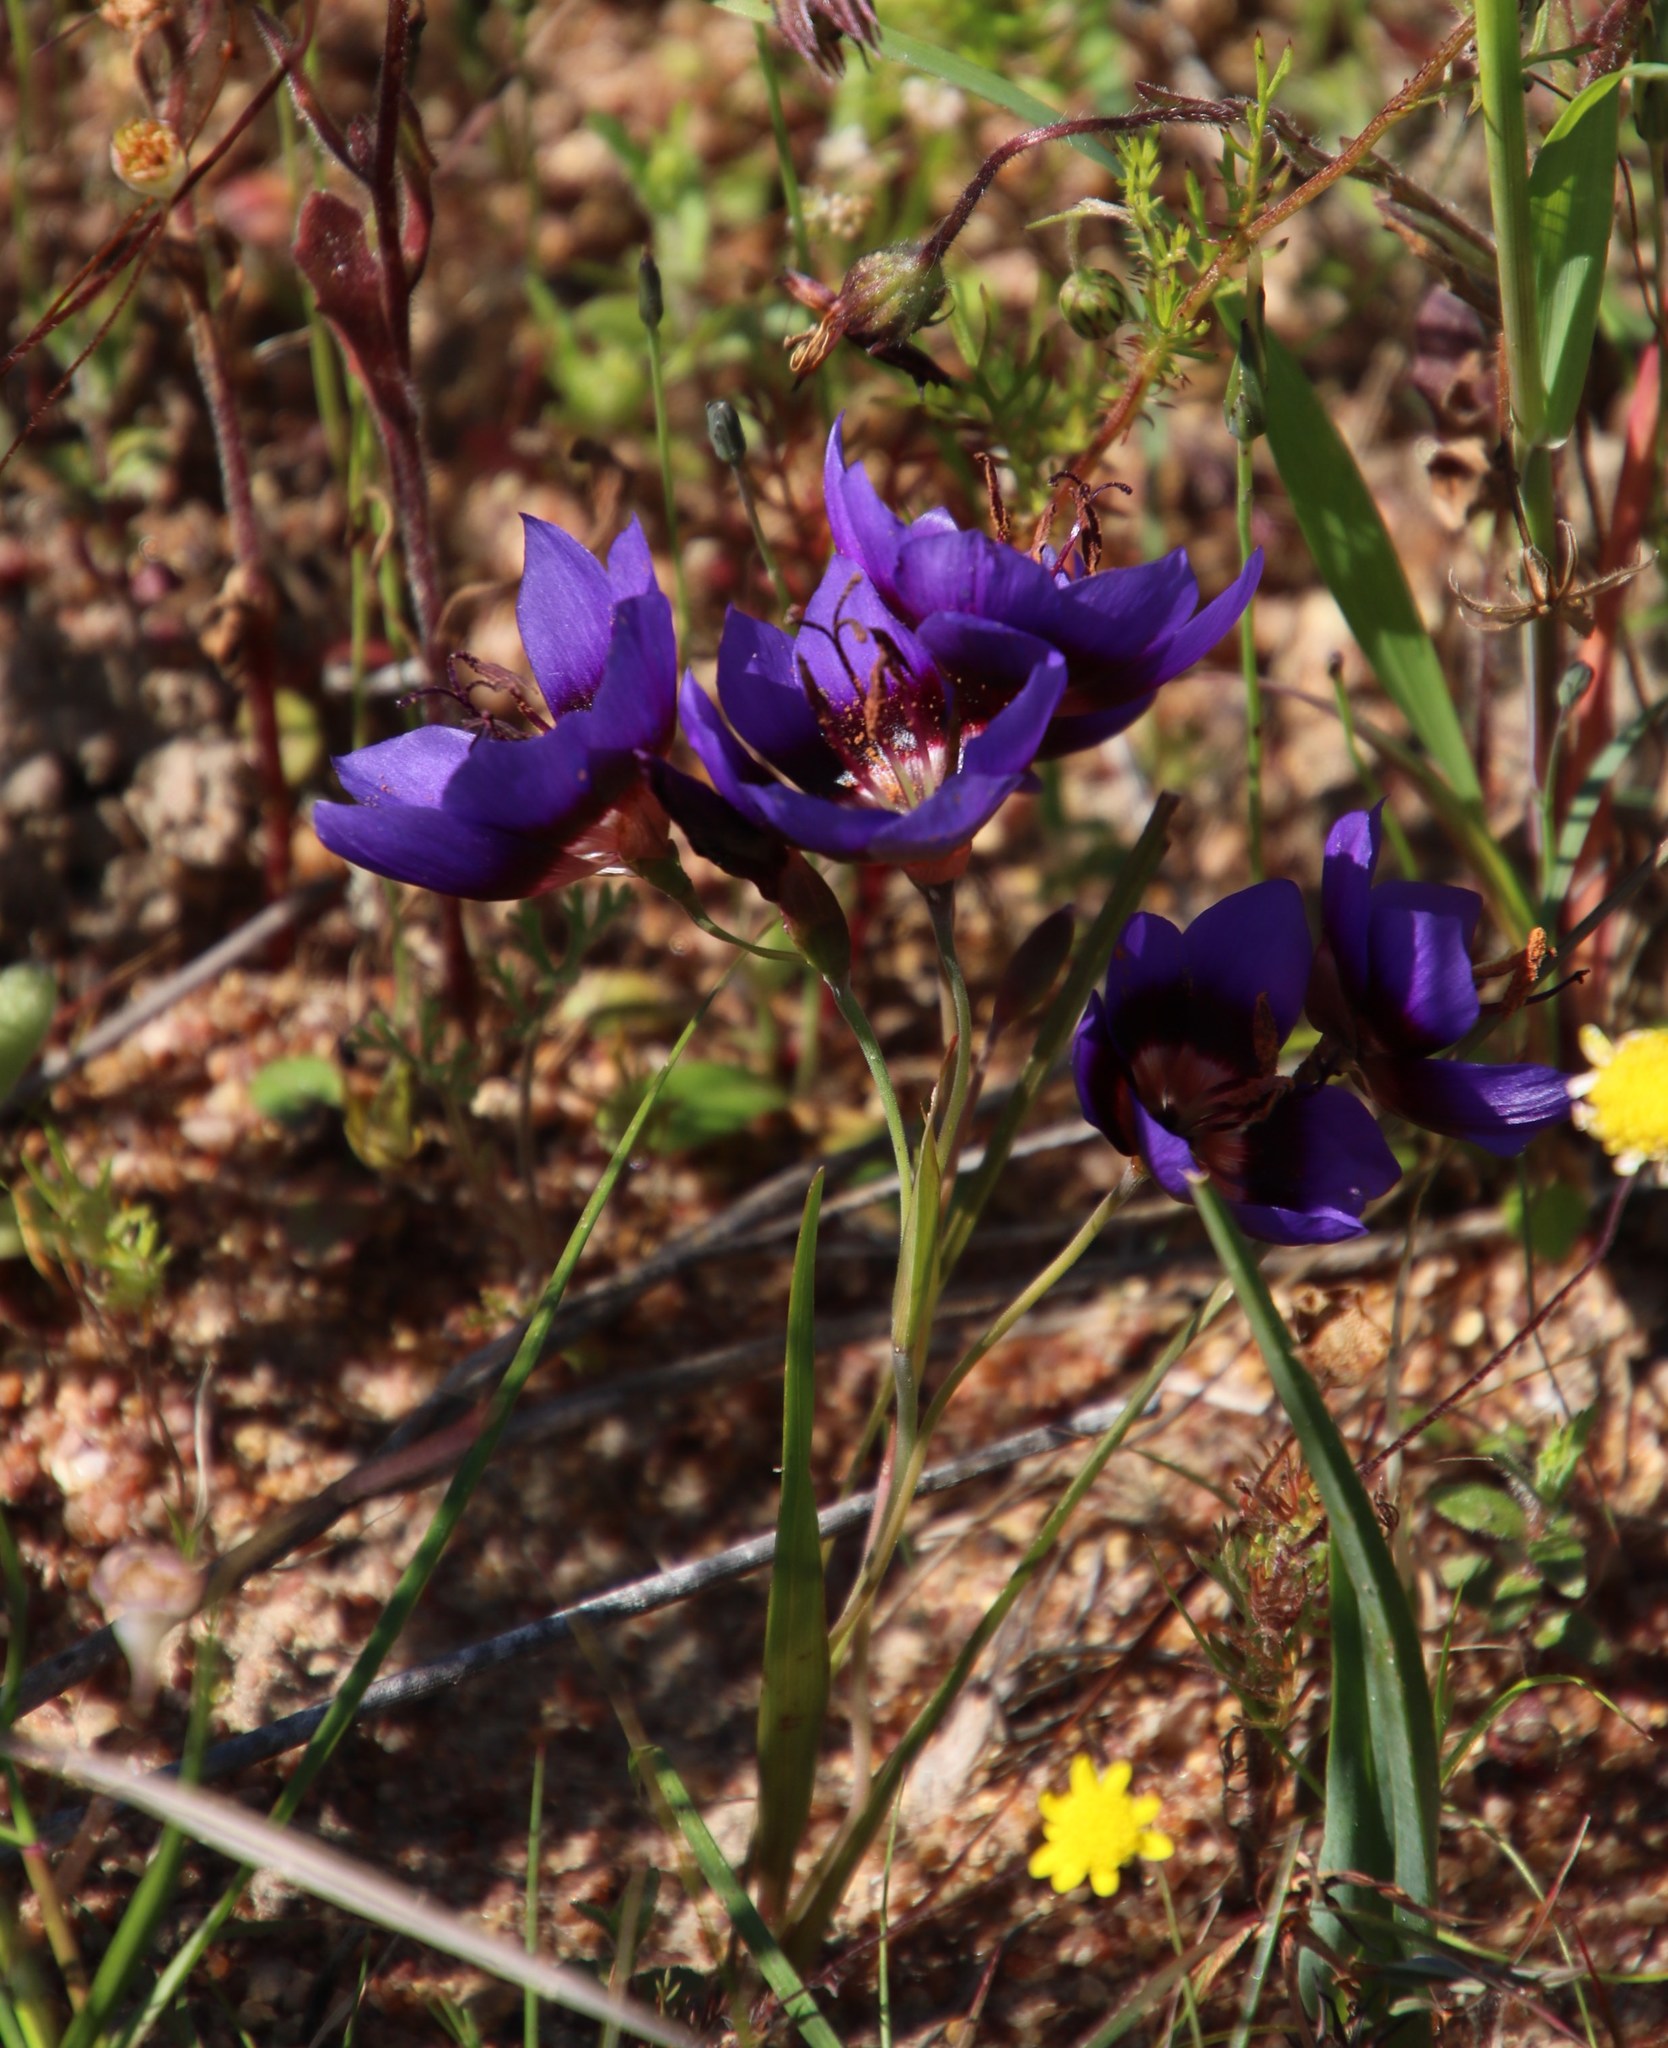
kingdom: Plantae
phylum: Tracheophyta
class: Liliopsida
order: Asparagales
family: Iridaceae
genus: Geissorhiza
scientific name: Geissorhiza monanthos
